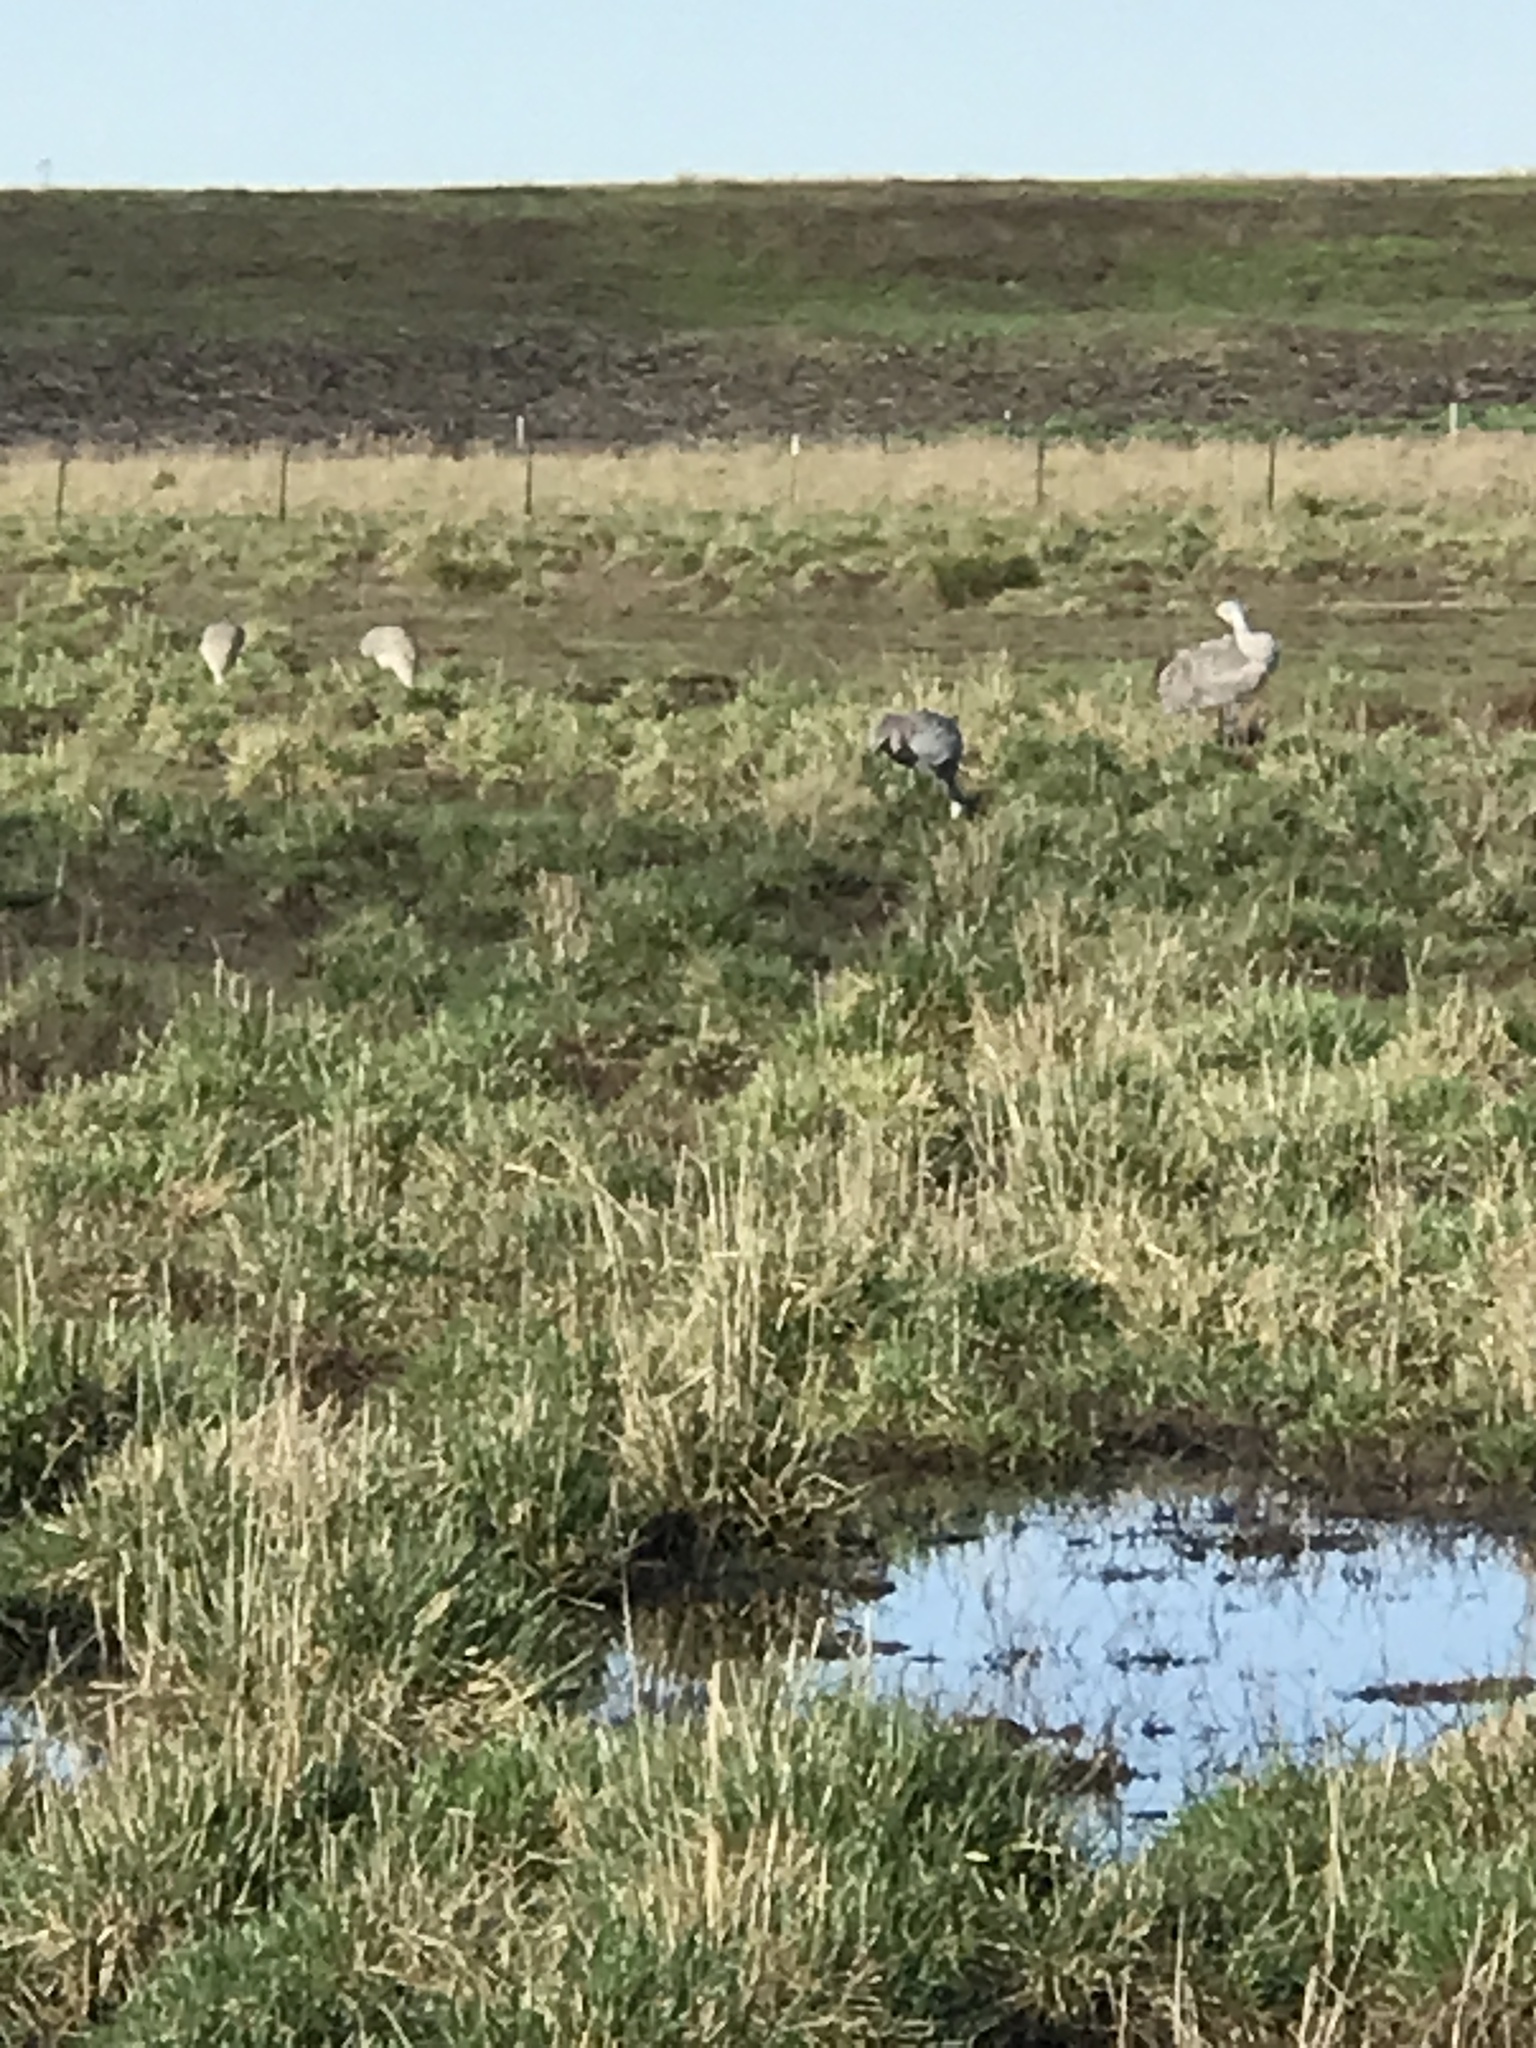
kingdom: Animalia
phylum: Chordata
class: Aves
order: Gruiformes
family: Gruidae
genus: Grus
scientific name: Grus canadensis
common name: Sandhill crane
